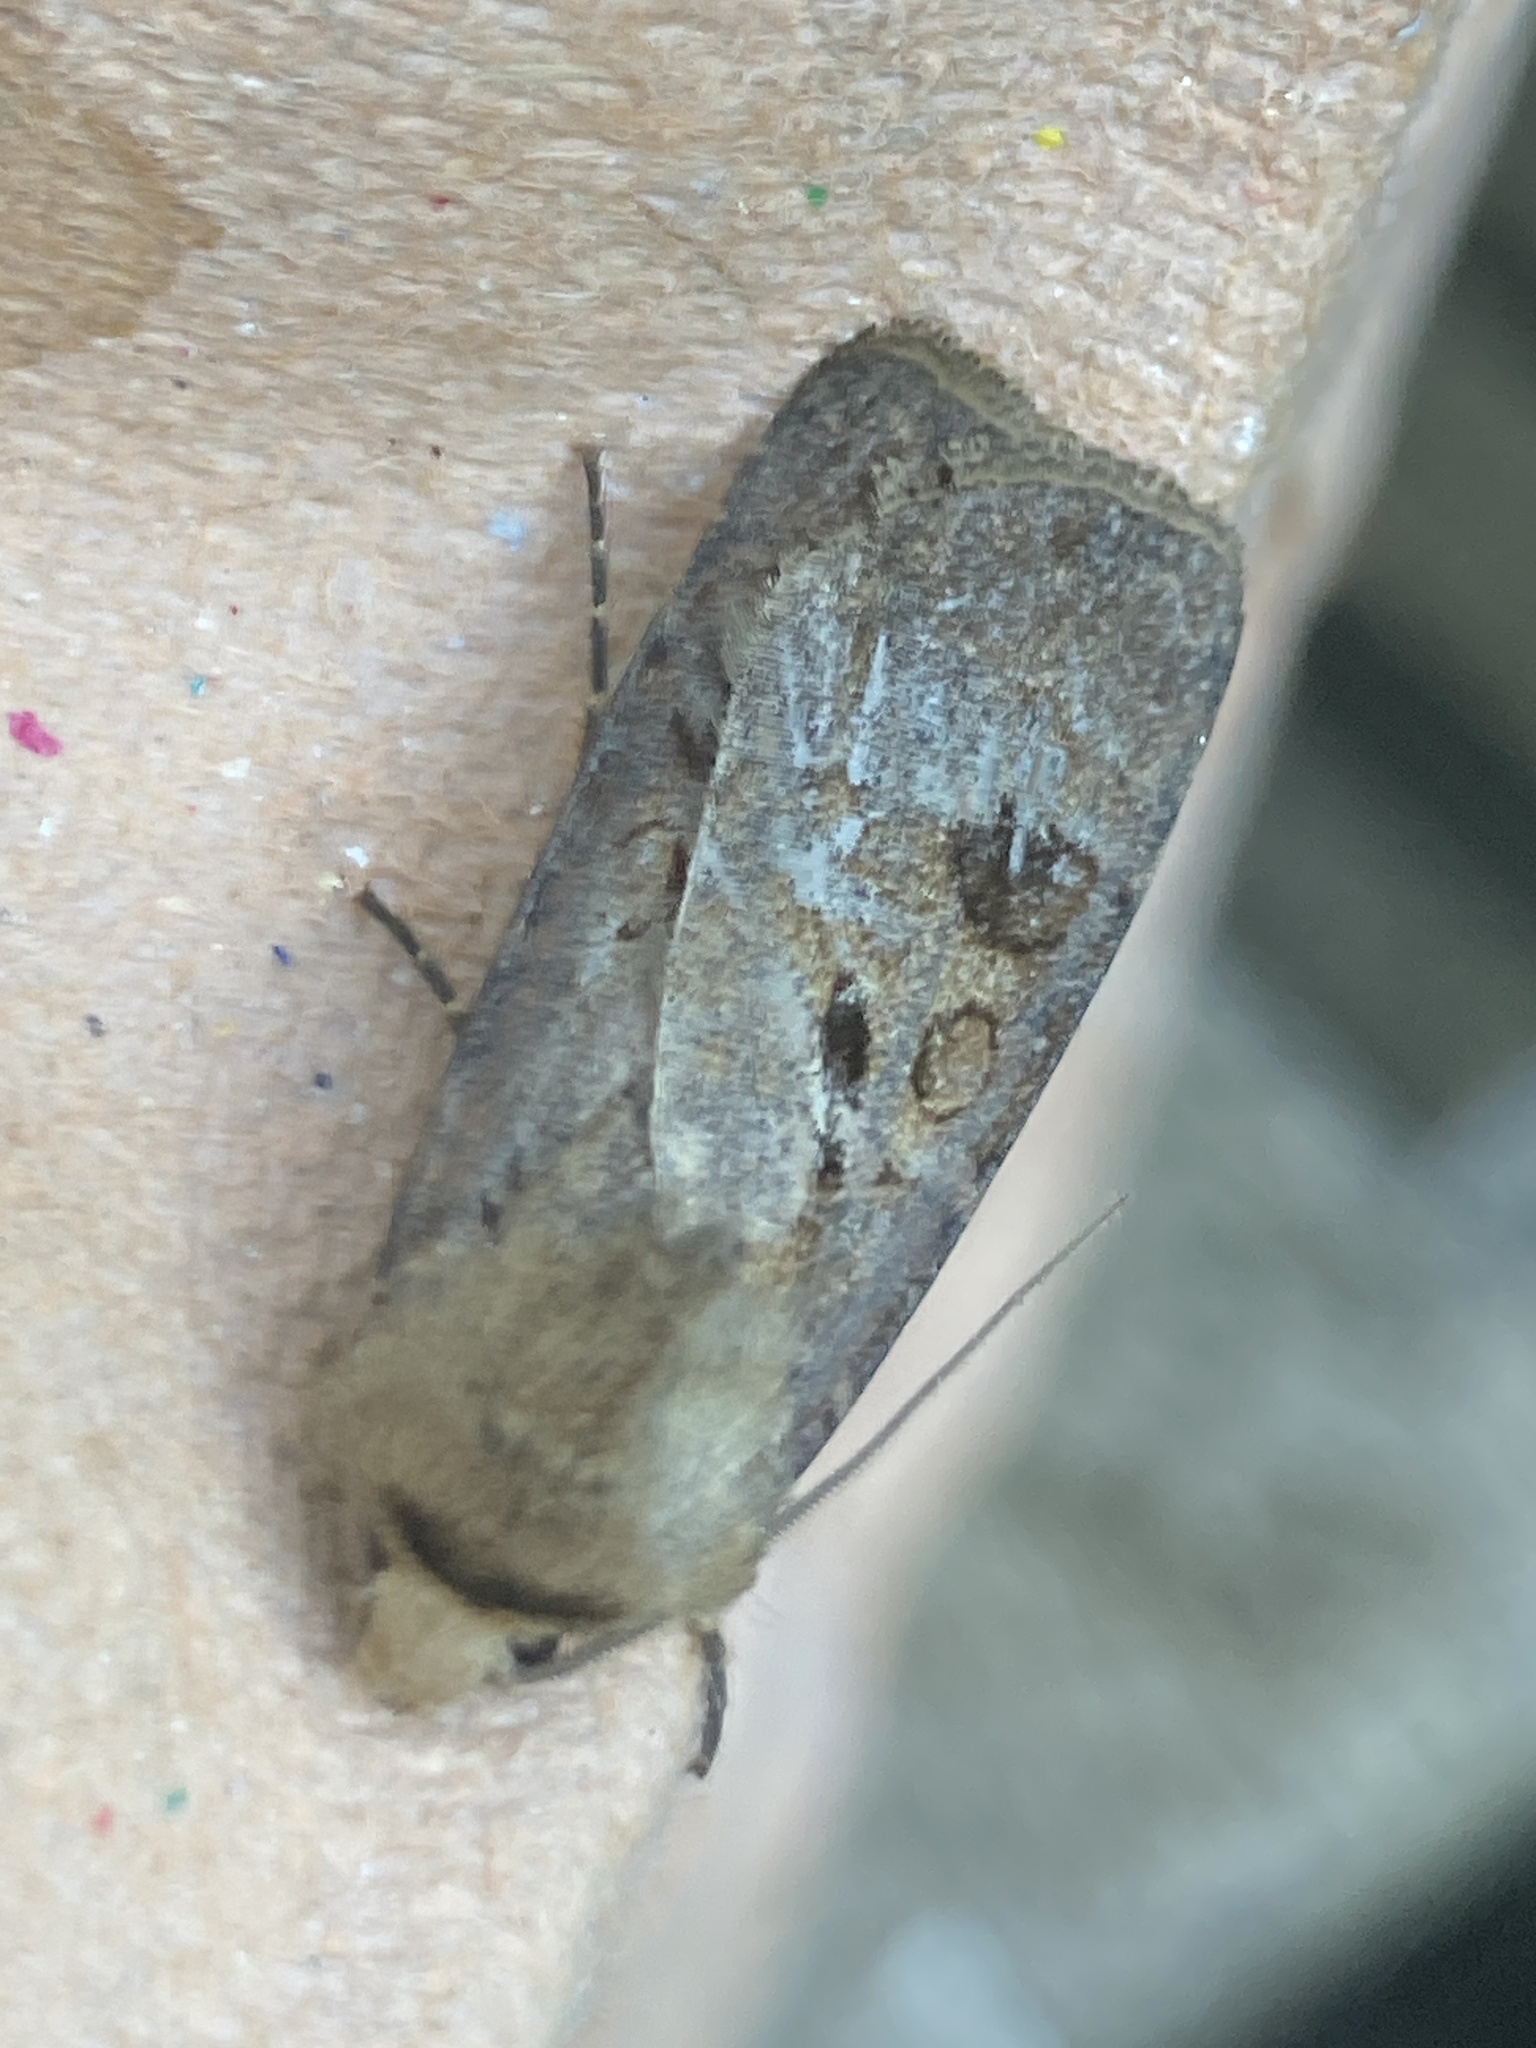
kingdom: Animalia
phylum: Arthropoda
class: Insecta
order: Lepidoptera
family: Noctuidae
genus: Agrotis
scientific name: Agrotis exclamationis
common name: Heart and dart
